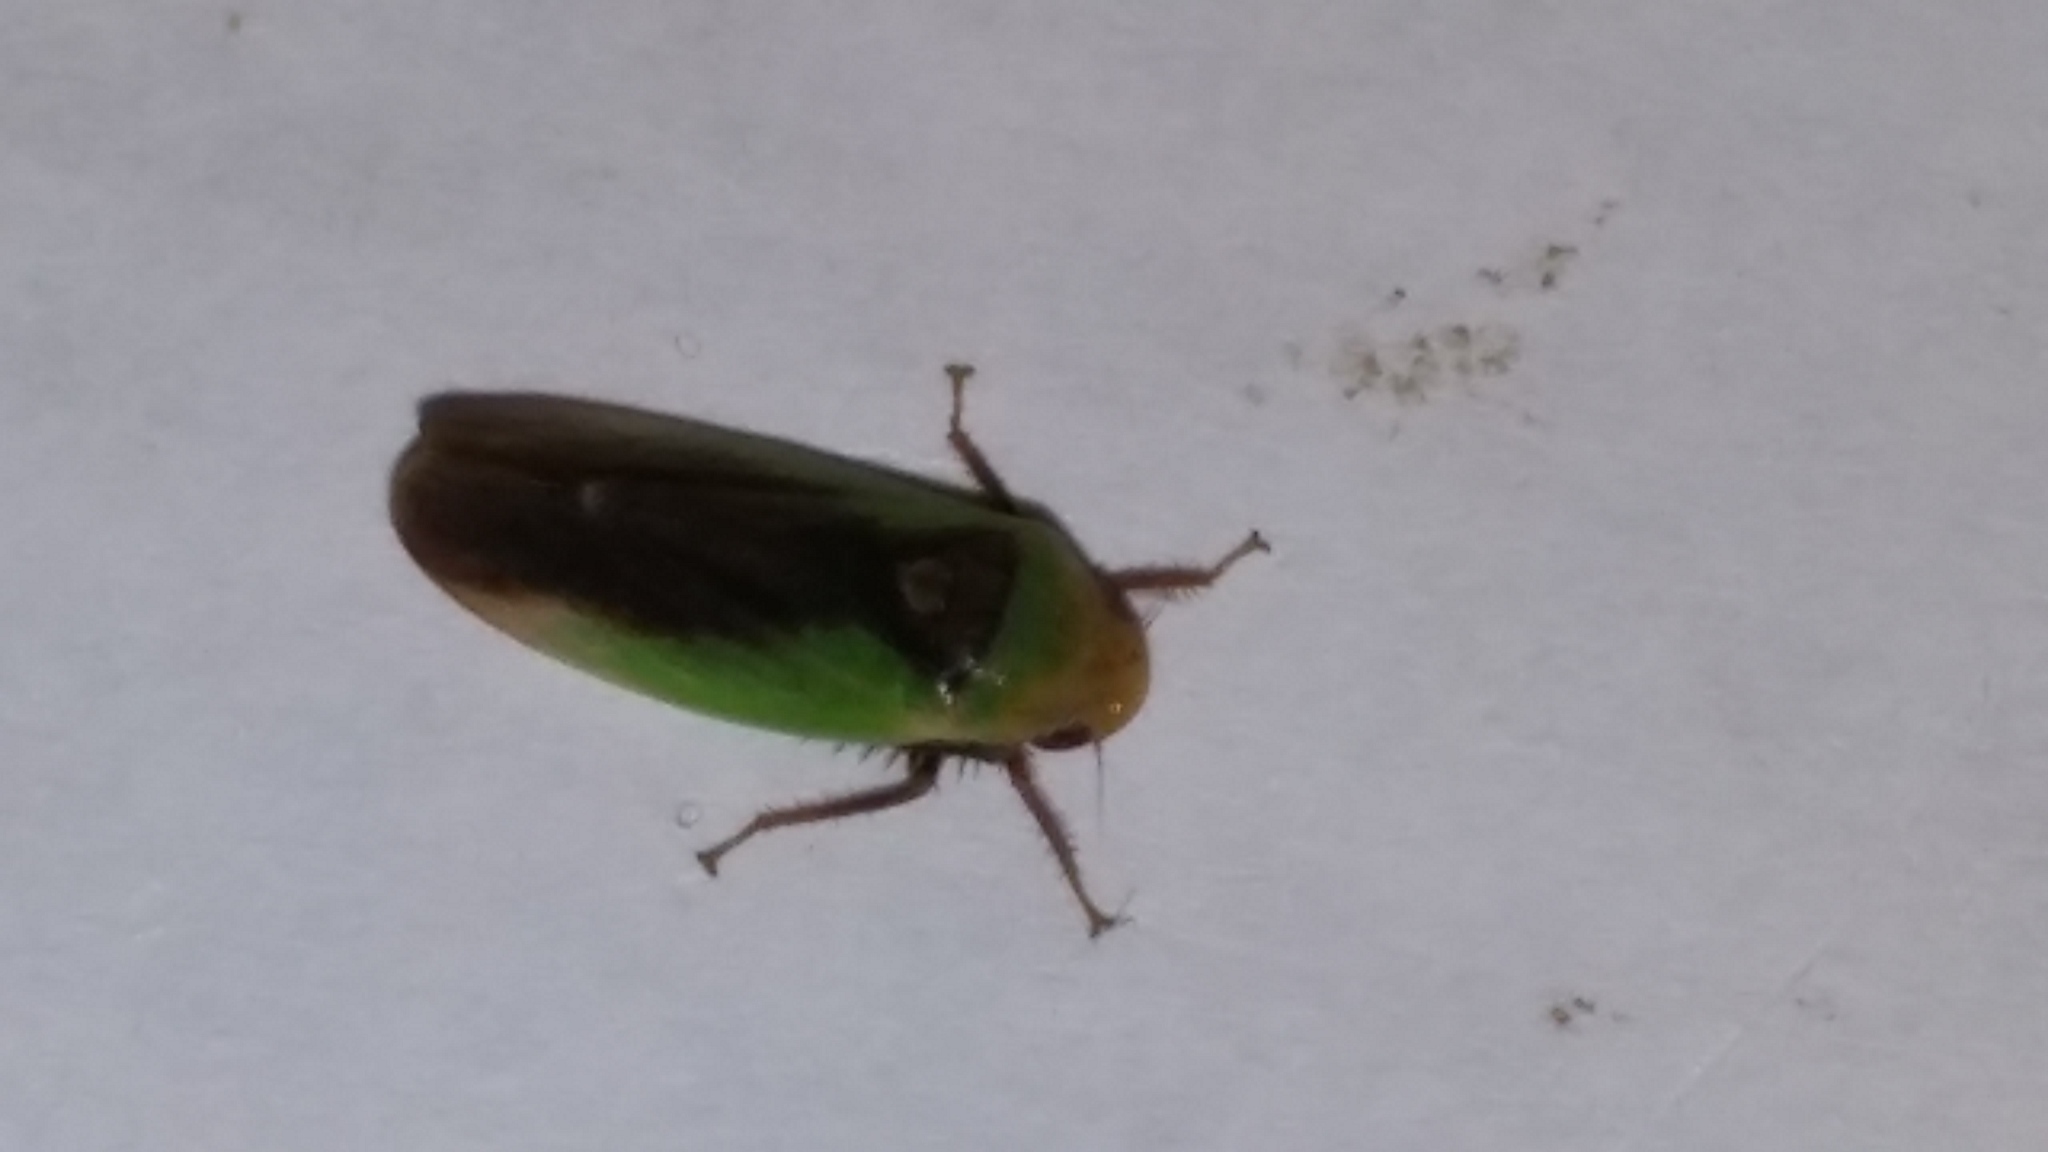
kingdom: Animalia
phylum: Arthropoda
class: Insecta
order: Hemiptera
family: Cicadellidae
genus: Ponana
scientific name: Ponana pectoralis
